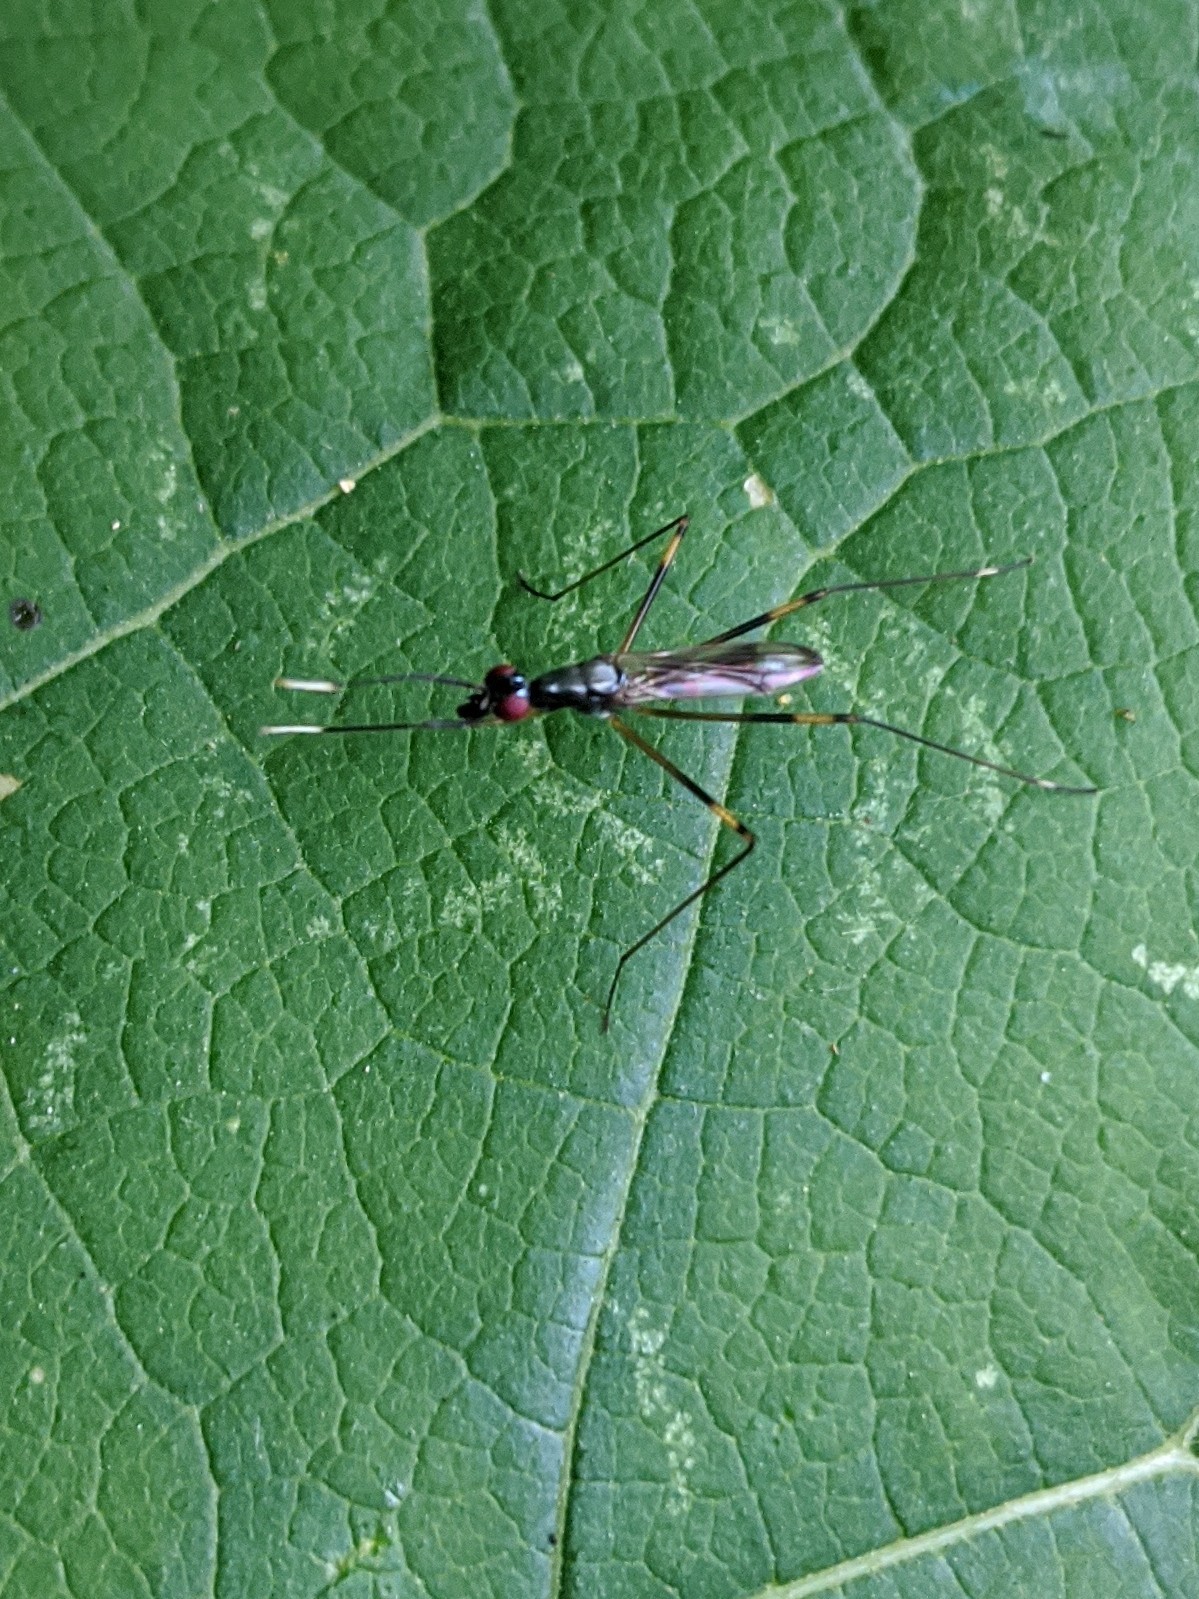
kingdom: Animalia
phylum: Arthropoda
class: Insecta
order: Diptera
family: Micropezidae
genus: Rainieria
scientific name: Rainieria antennaepes
